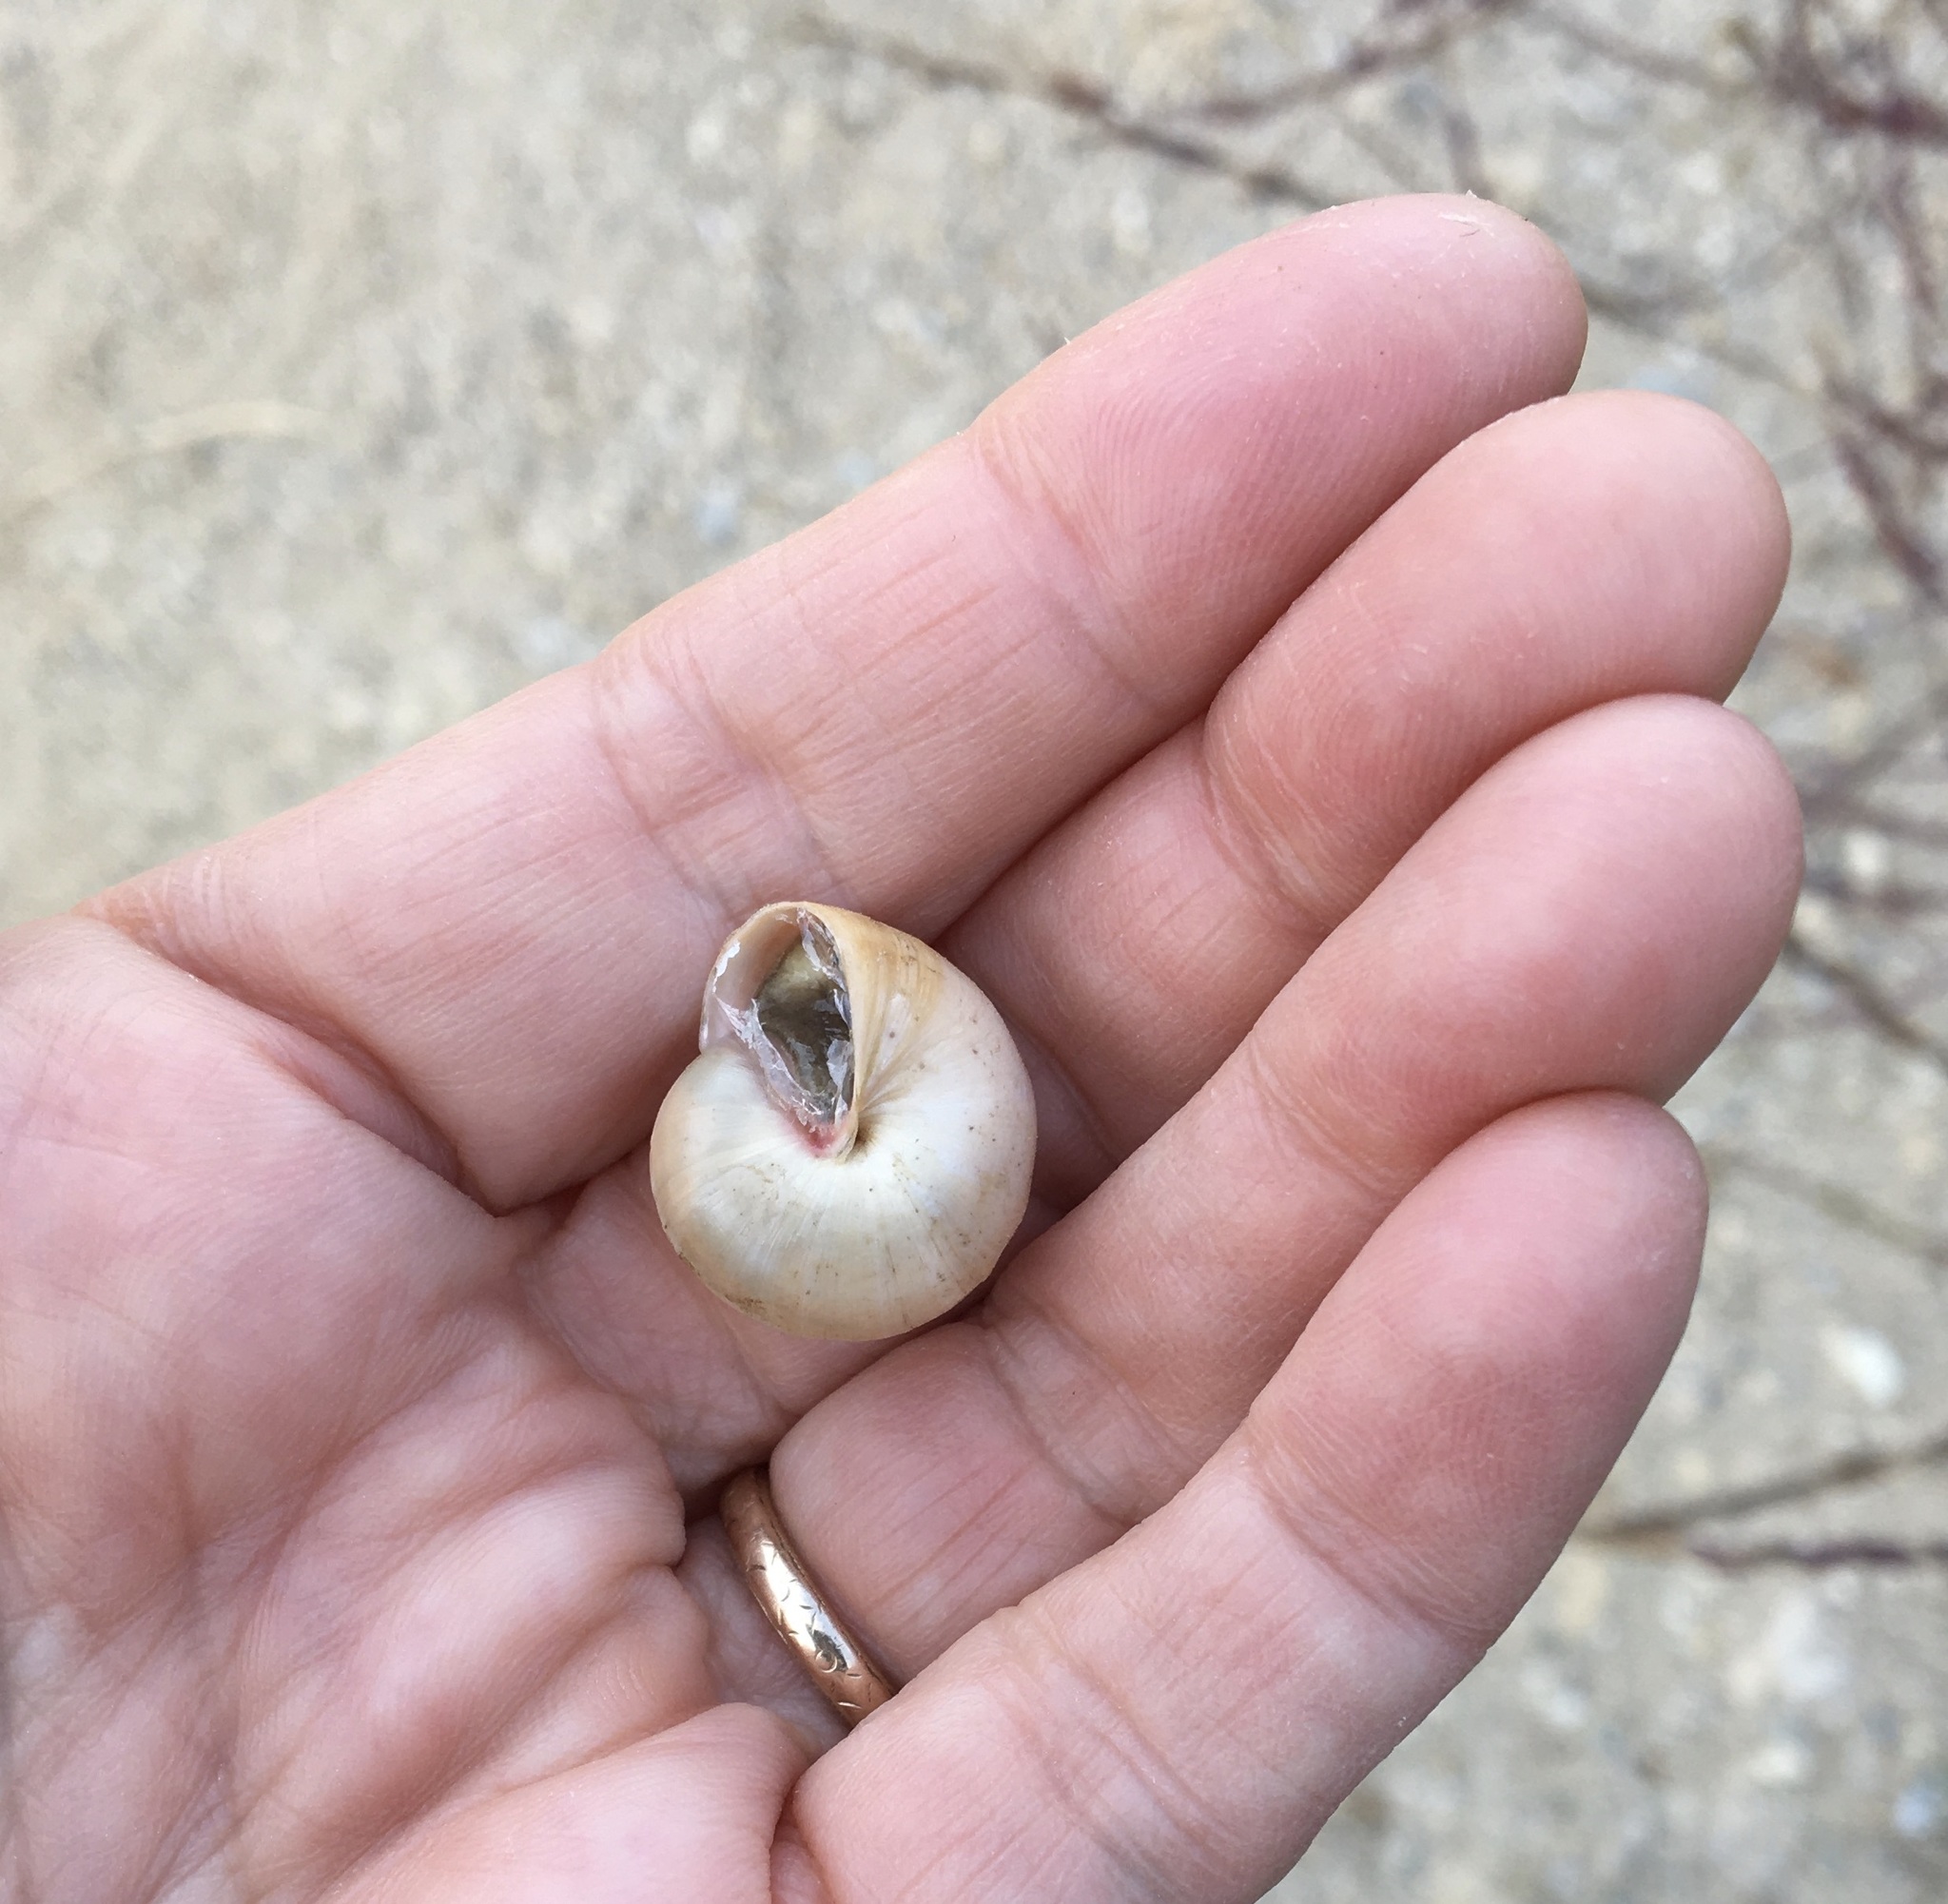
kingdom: Animalia
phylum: Mollusca
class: Gastropoda
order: Stylommatophora
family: Helicidae
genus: Theba
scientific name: Theba pisana
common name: White snail
